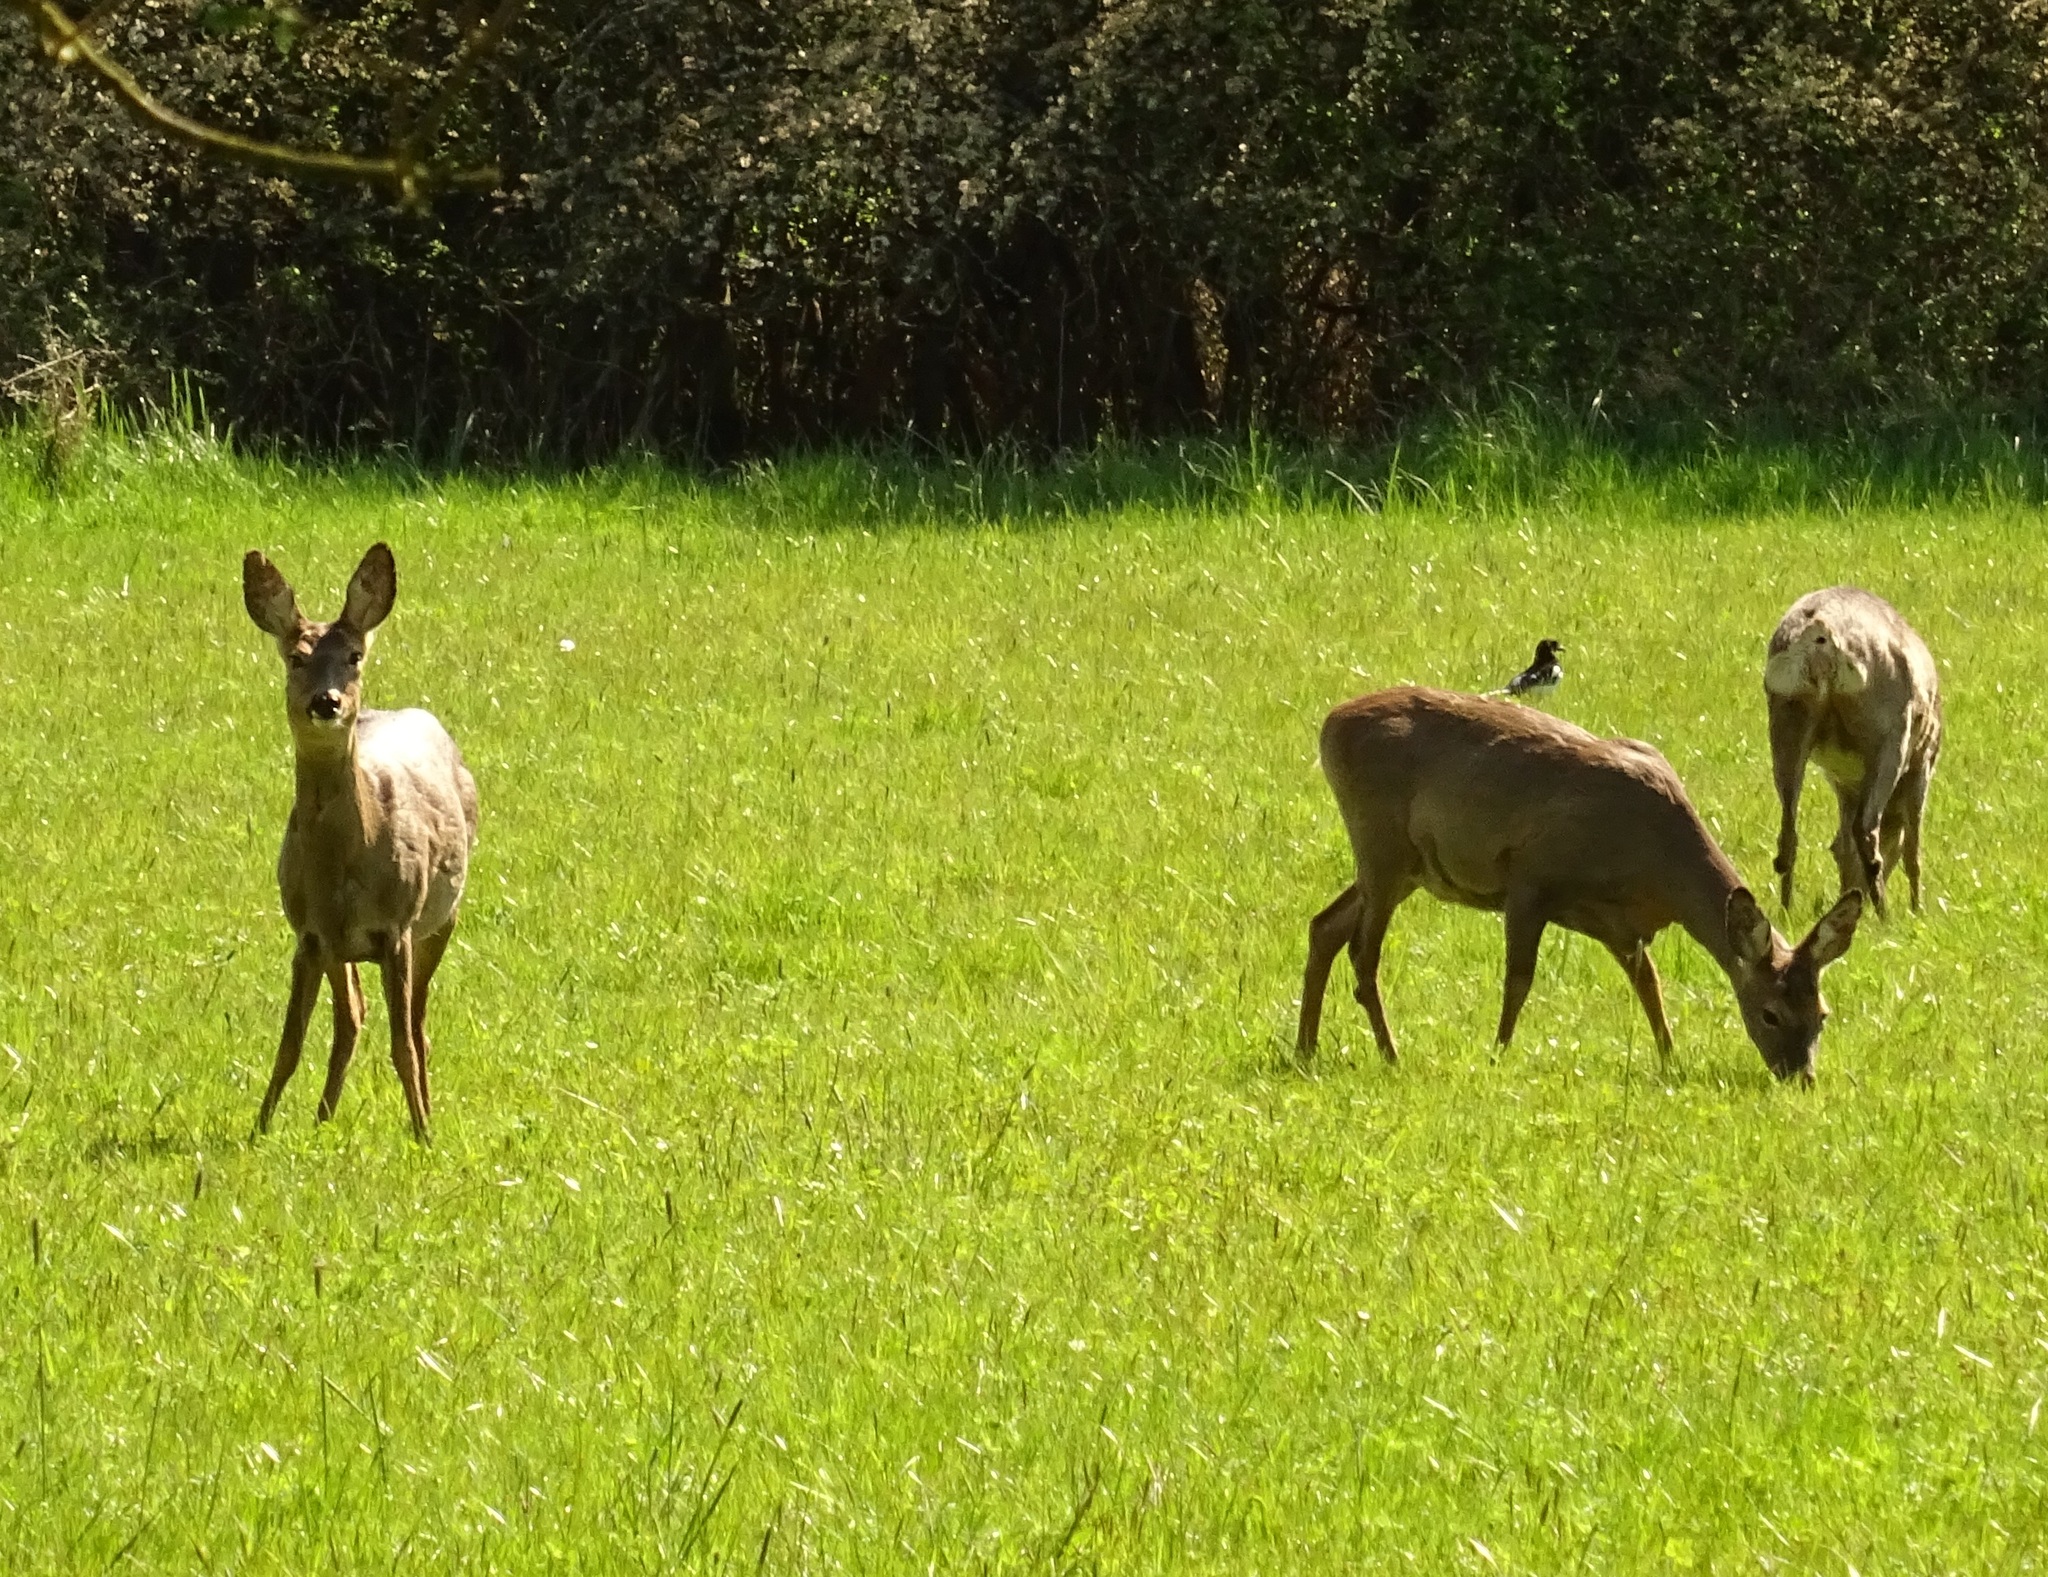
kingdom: Animalia
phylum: Chordata
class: Mammalia
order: Artiodactyla
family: Cervidae
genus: Capreolus
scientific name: Capreolus capreolus
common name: Western roe deer
